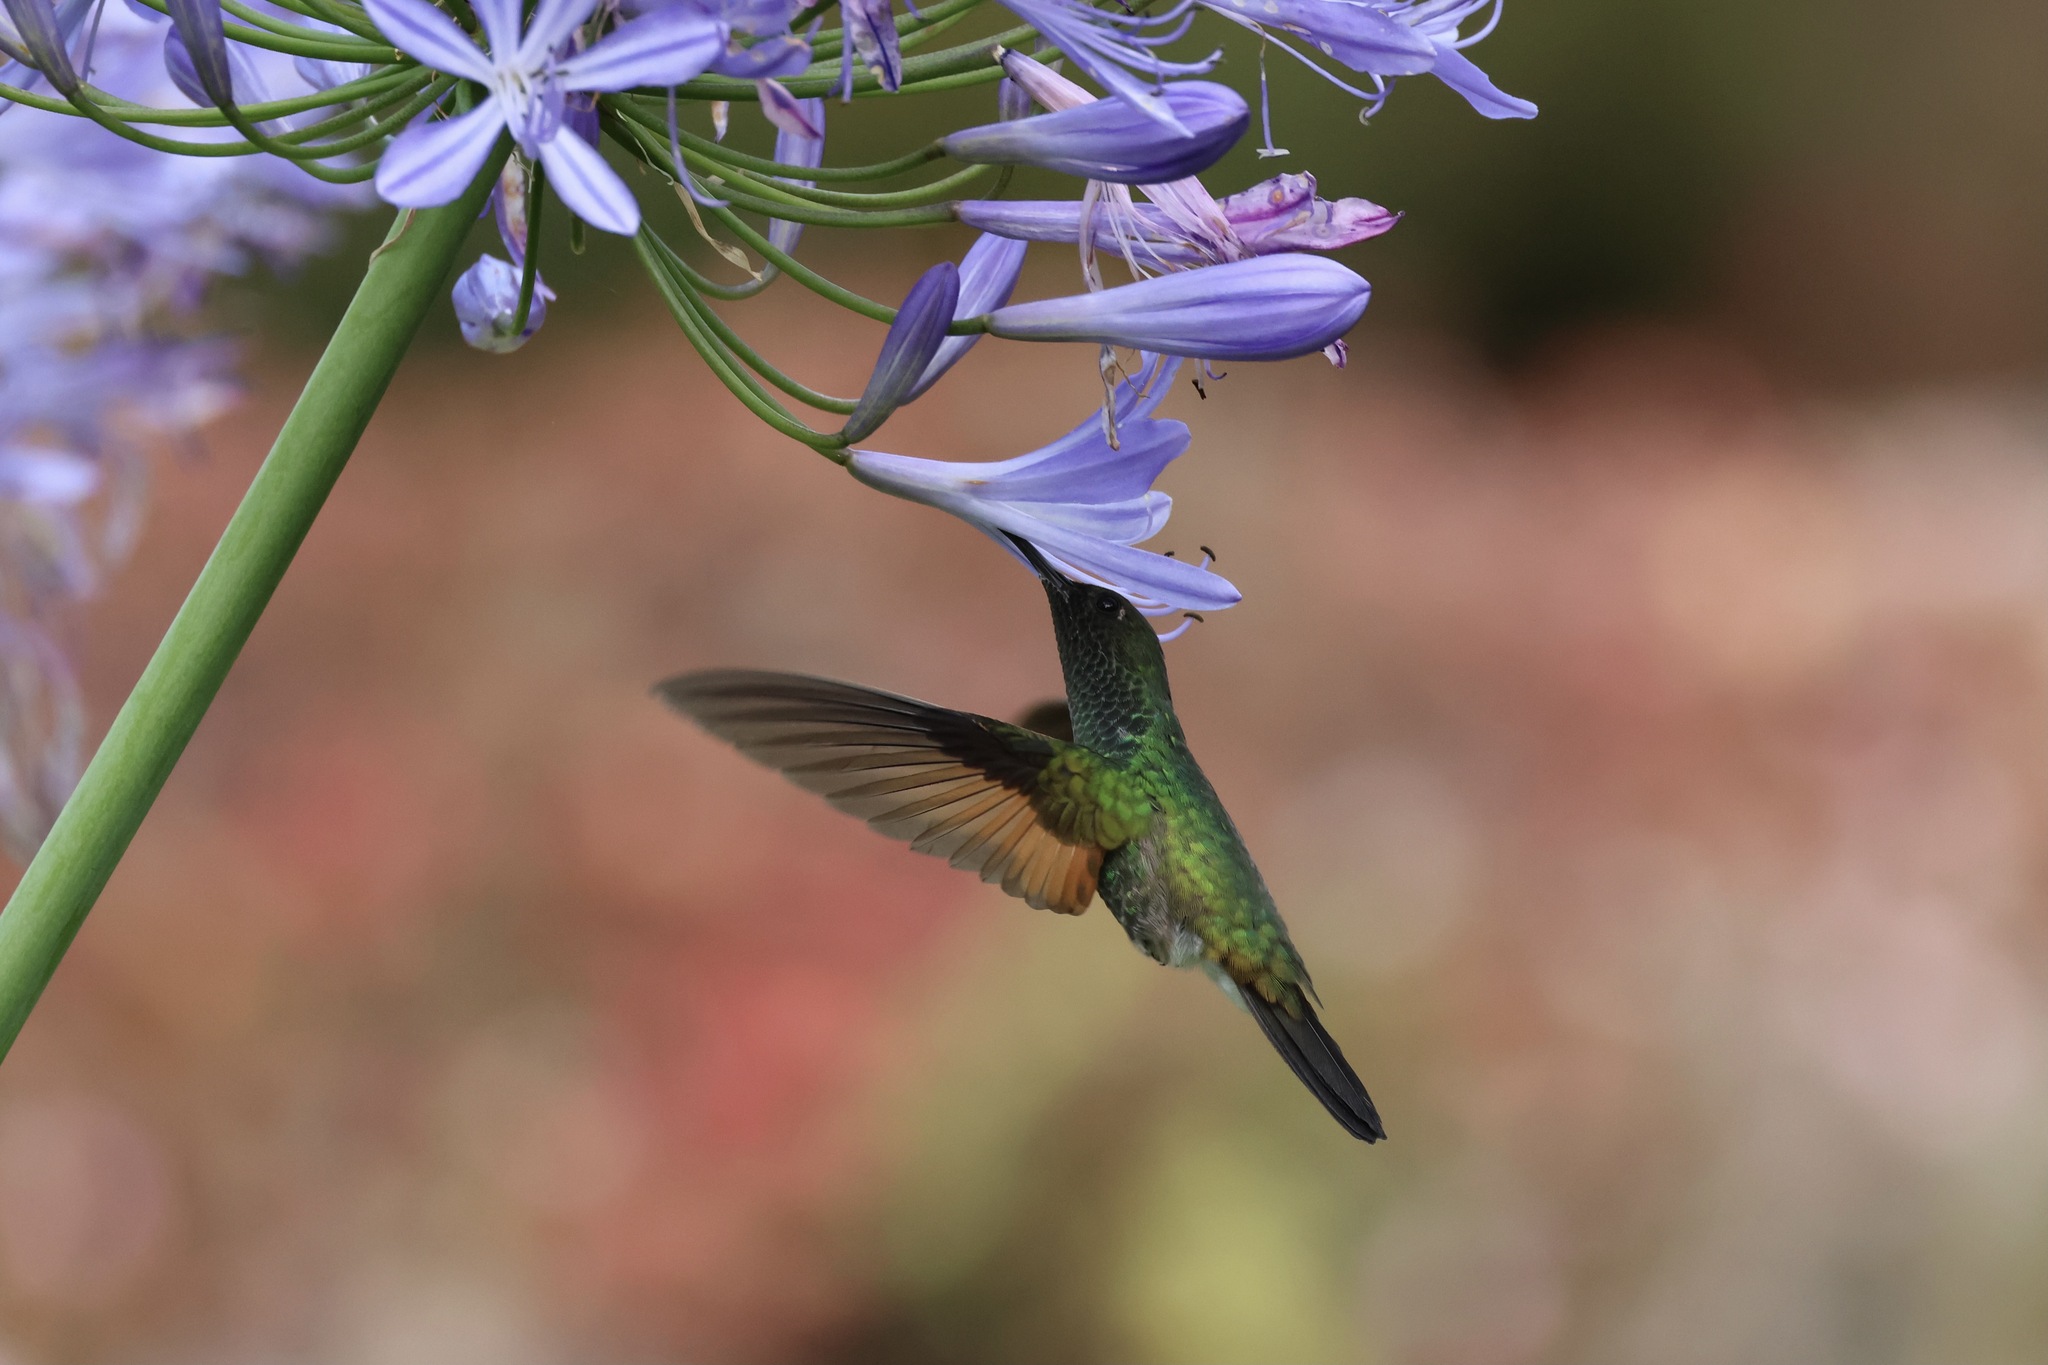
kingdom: Animalia
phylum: Chordata
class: Aves
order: Apodiformes
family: Trochilidae
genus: Eupherusa
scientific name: Eupherusa eximia
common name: Stripe-tailed hummingbird
